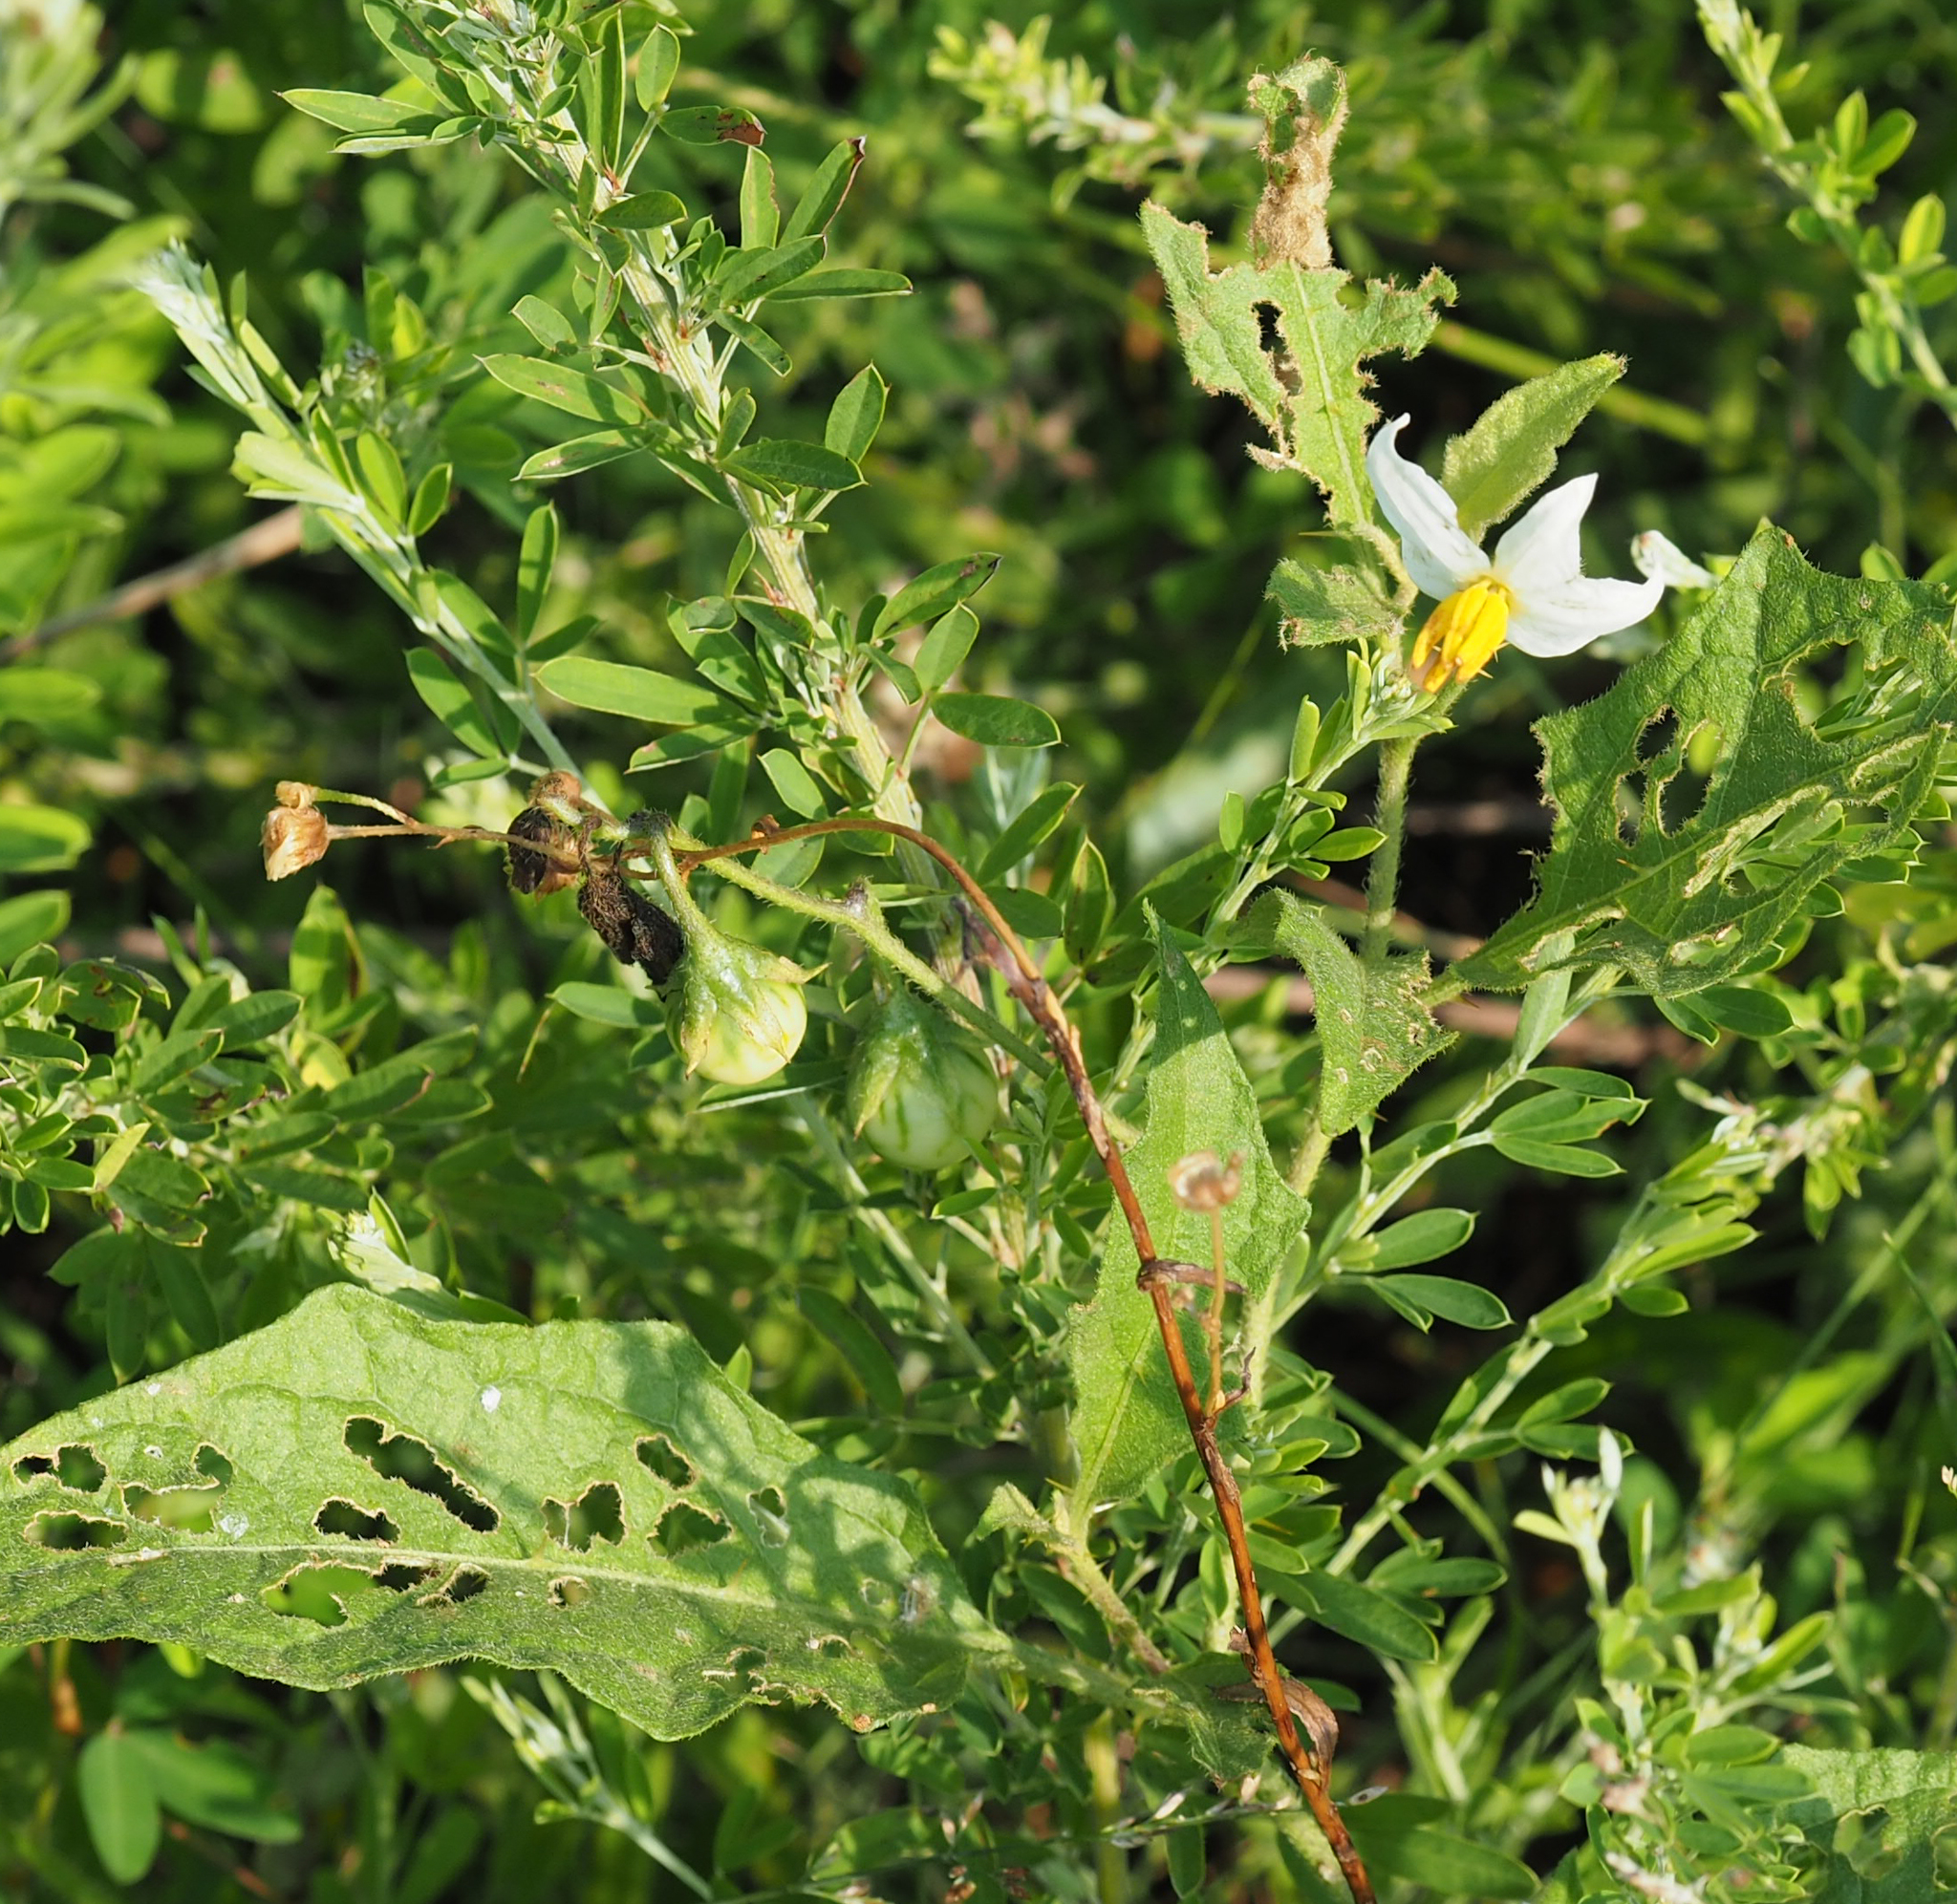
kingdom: Plantae
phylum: Tracheophyta
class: Magnoliopsida
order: Solanales
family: Solanaceae
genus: Solanum
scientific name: Solanum carolinense
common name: Horse-nettle
